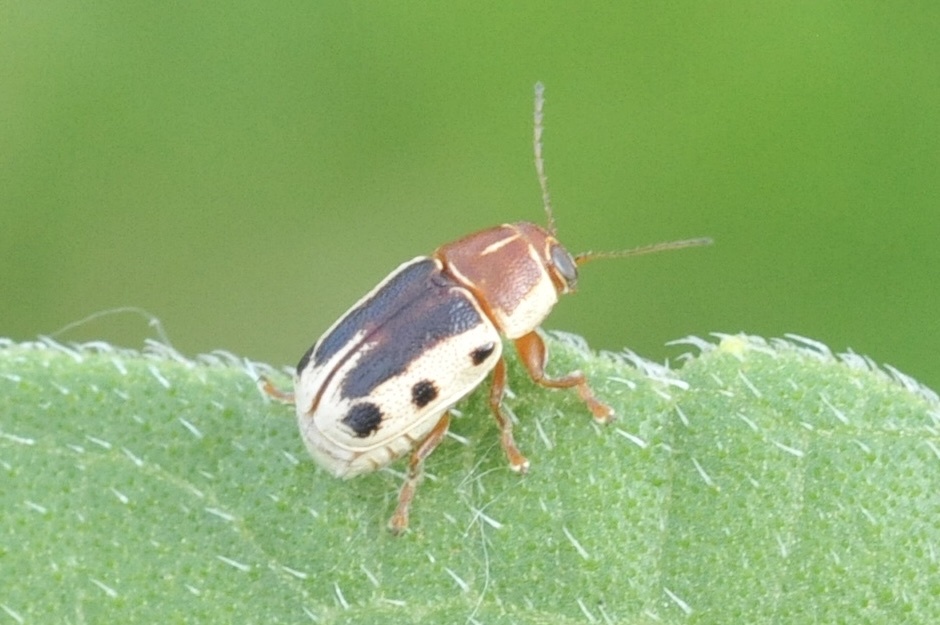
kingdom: Animalia
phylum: Arthropoda
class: Insecta
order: Coleoptera
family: Chrysomelidae
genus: Pachybrachis
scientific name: Pachybrachis bivittatus
